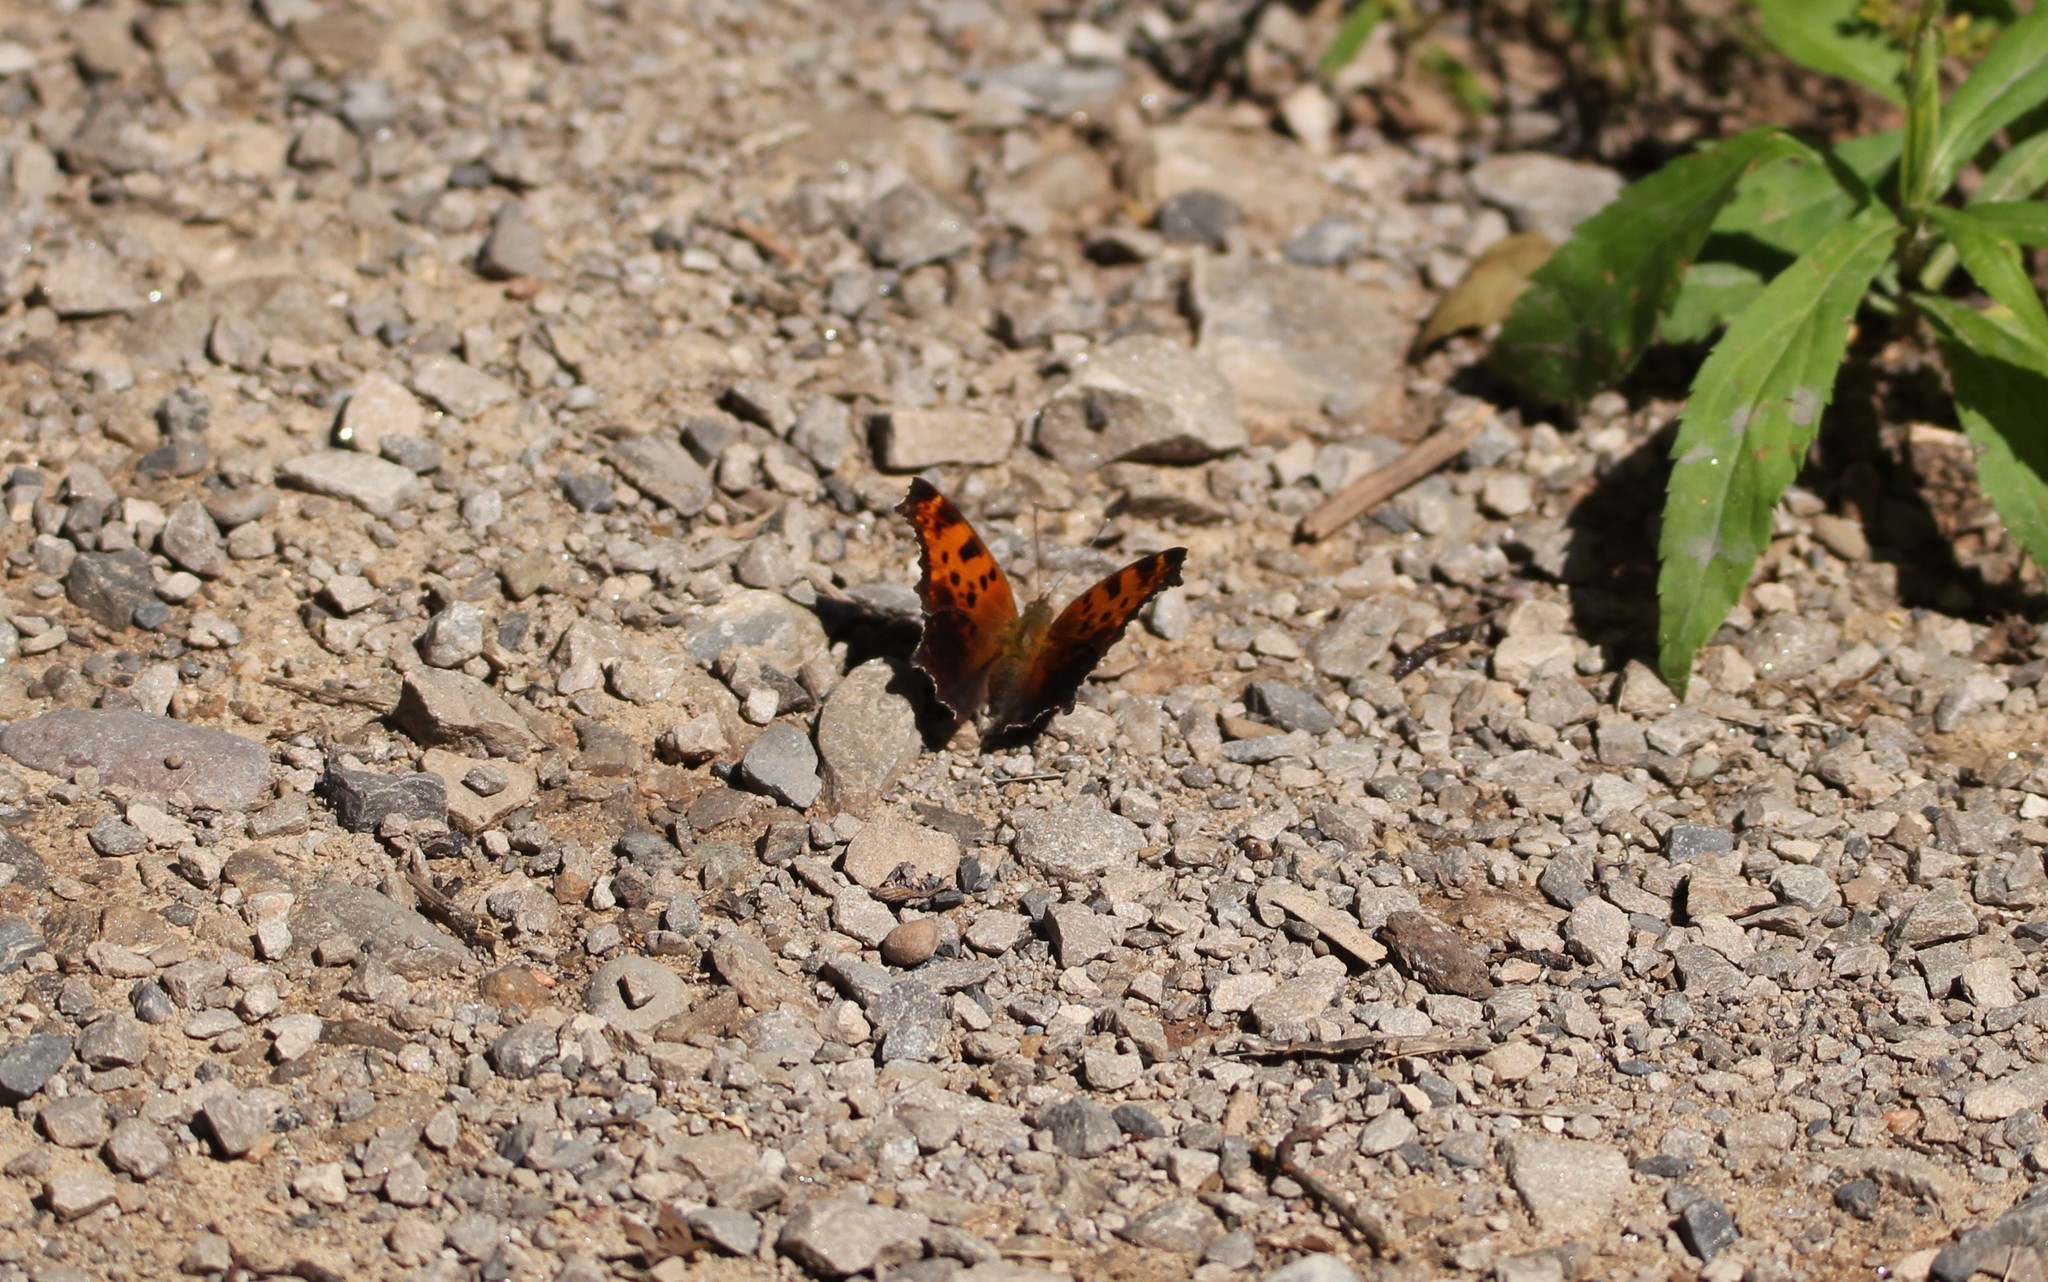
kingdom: Animalia
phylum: Arthropoda
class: Insecta
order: Lepidoptera
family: Nymphalidae
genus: Polygonia
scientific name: Polygonia comma
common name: Eastern comma
